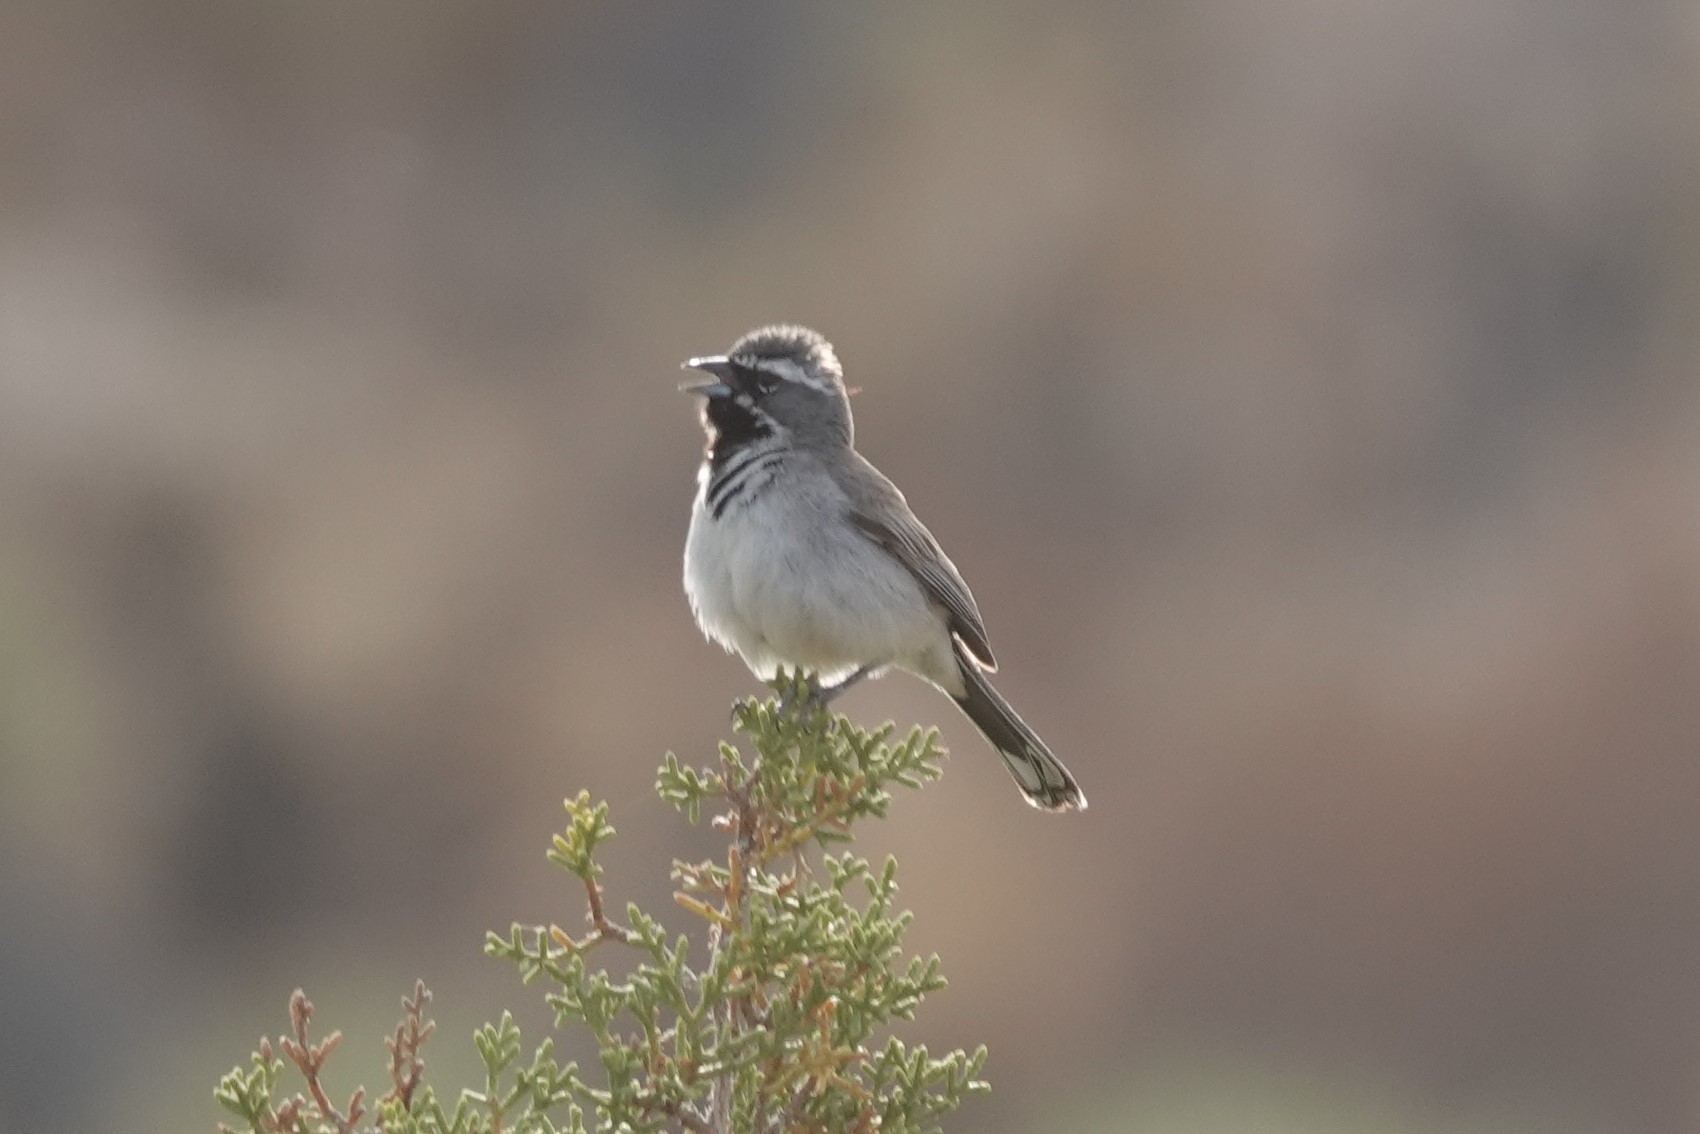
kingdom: Animalia
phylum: Chordata
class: Aves
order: Passeriformes
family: Passerellidae
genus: Amphispiza
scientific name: Amphispiza bilineata
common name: Black-throated sparrow
